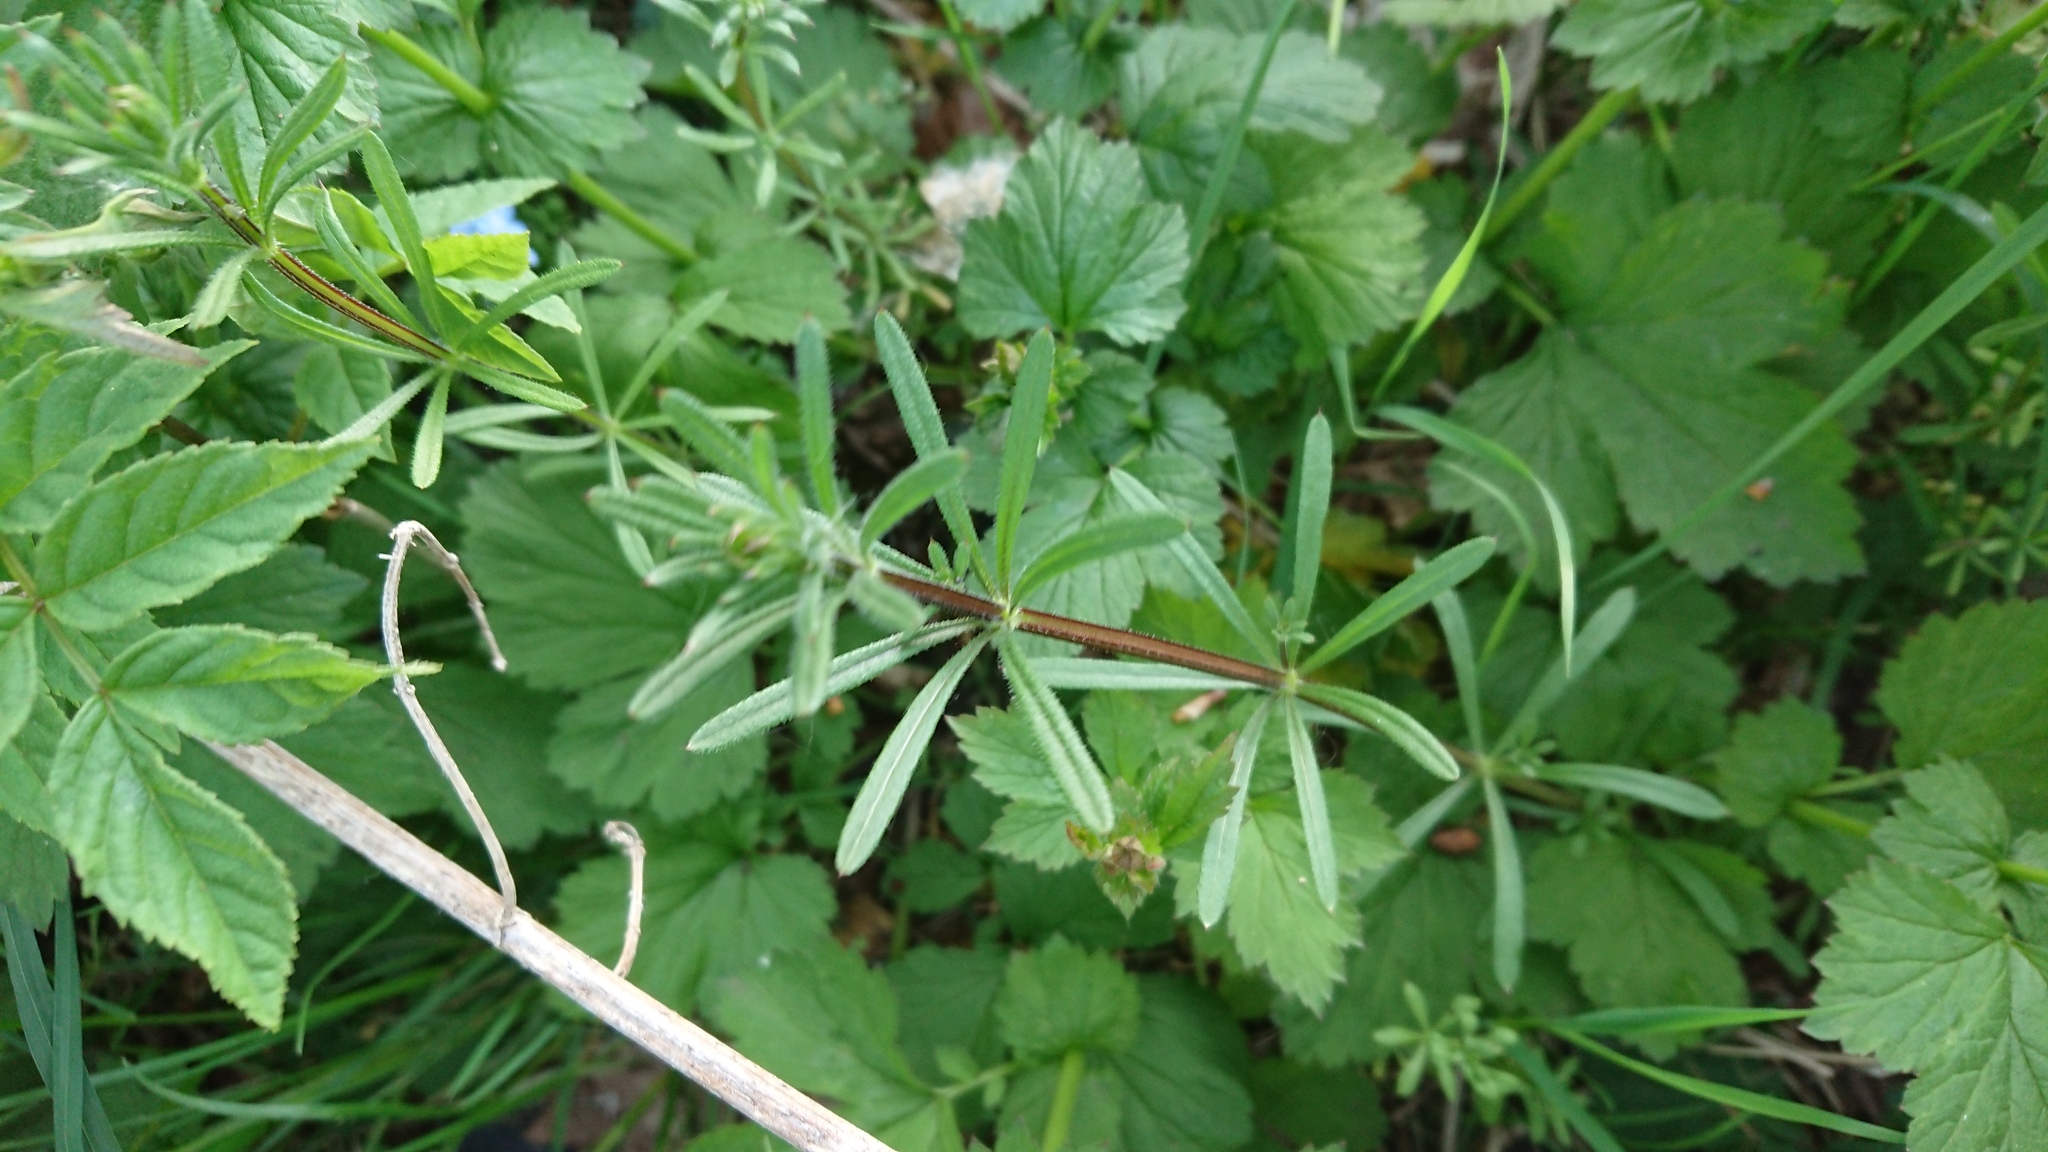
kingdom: Plantae
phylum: Tracheophyta
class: Magnoliopsida
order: Gentianales
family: Rubiaceae
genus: Galium
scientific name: Galium aparine
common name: Cleavers
